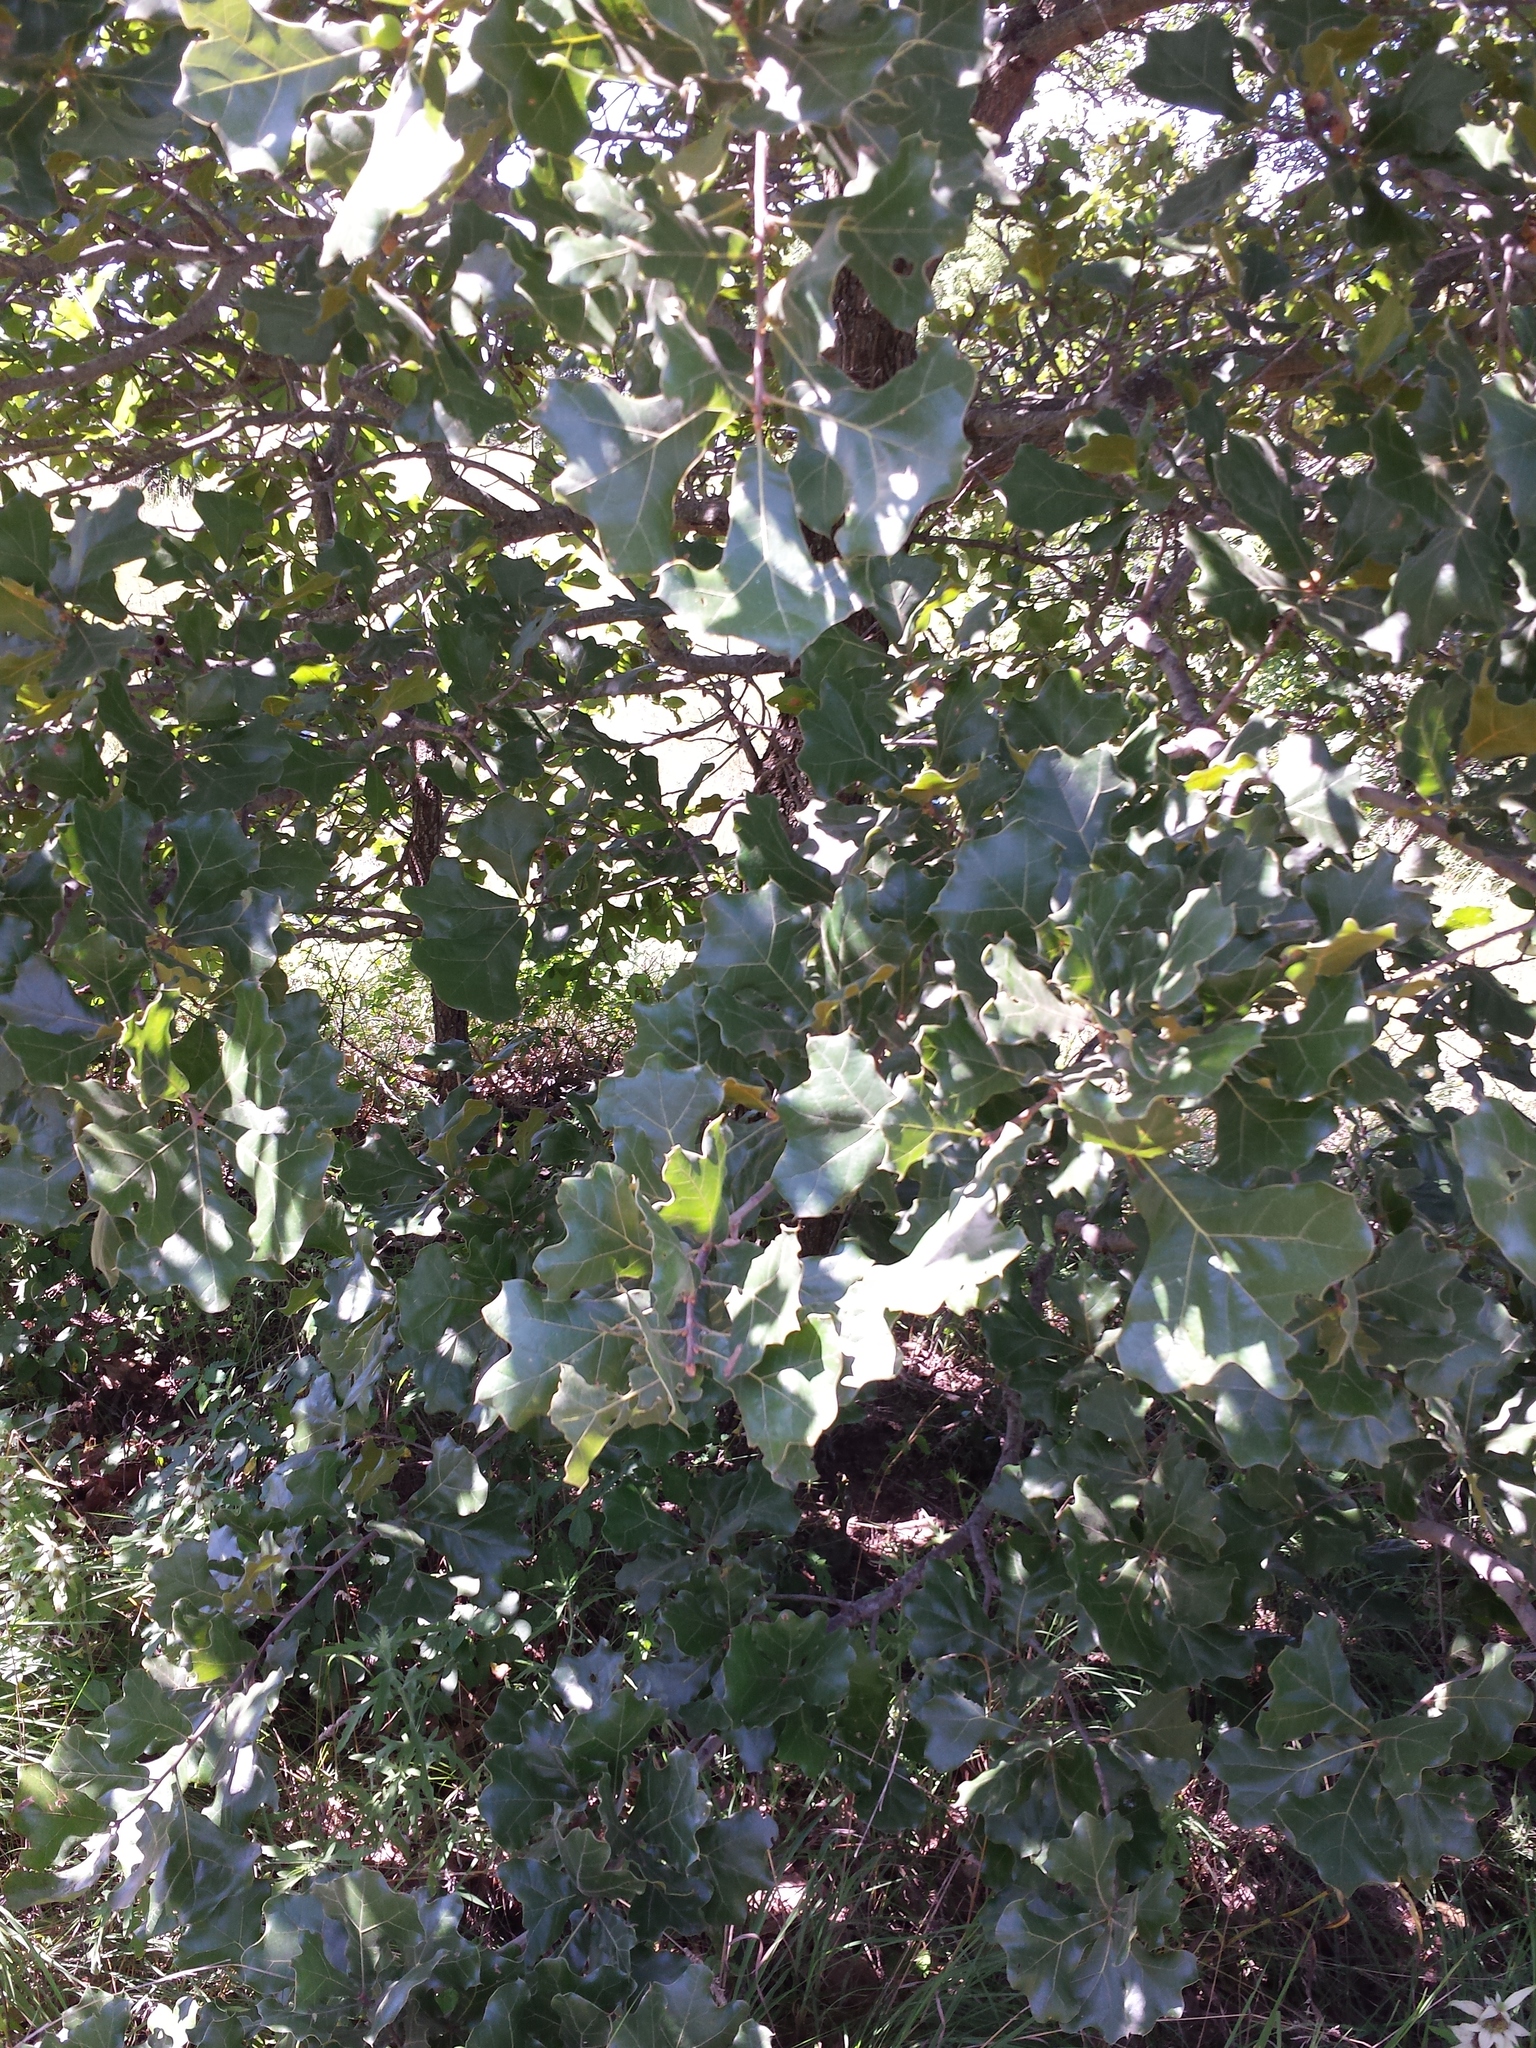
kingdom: Plantae
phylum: Tracheophyta
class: Magnoliopsida
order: Fagales
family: Fagaceae
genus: Quercus
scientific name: Quercus marilandica
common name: Blackjack oak
